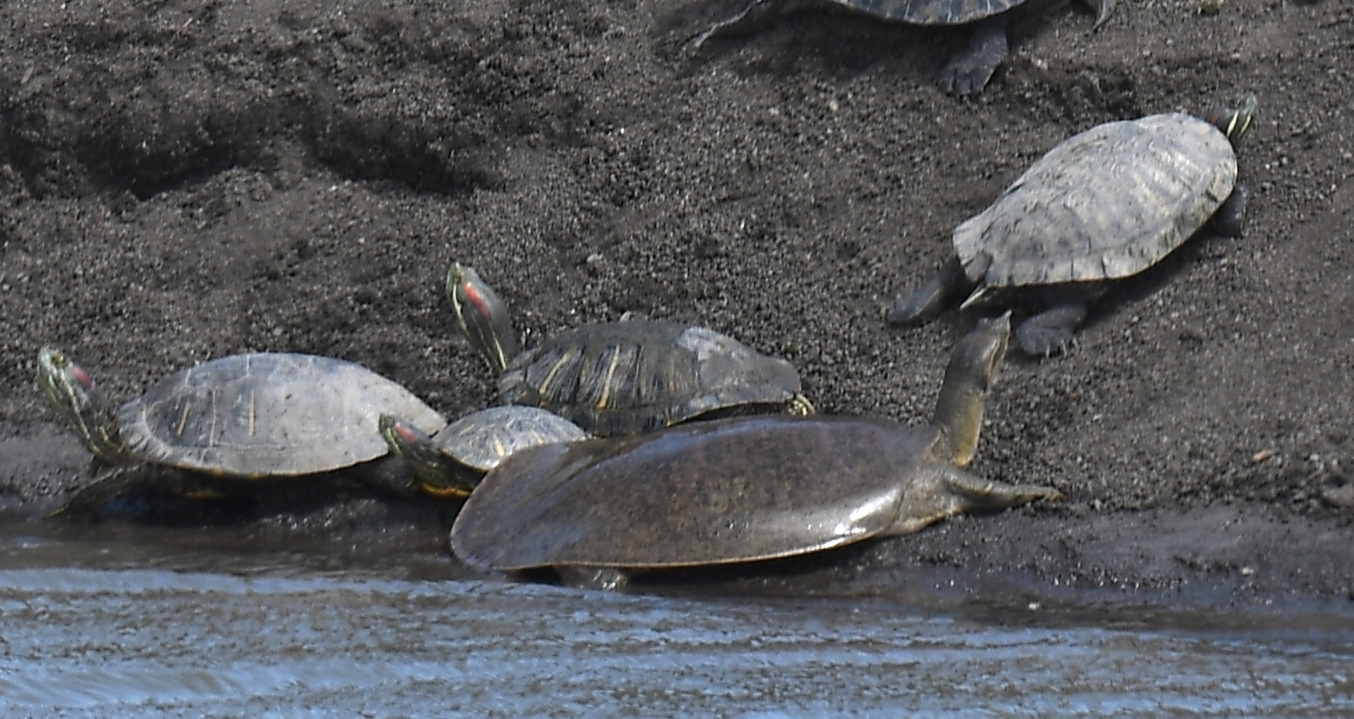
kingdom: Animalia
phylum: Chordata
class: Testudines
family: Trionychidae
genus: Apalone
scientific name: Apalone mutica
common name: Smooth softshell turtle
